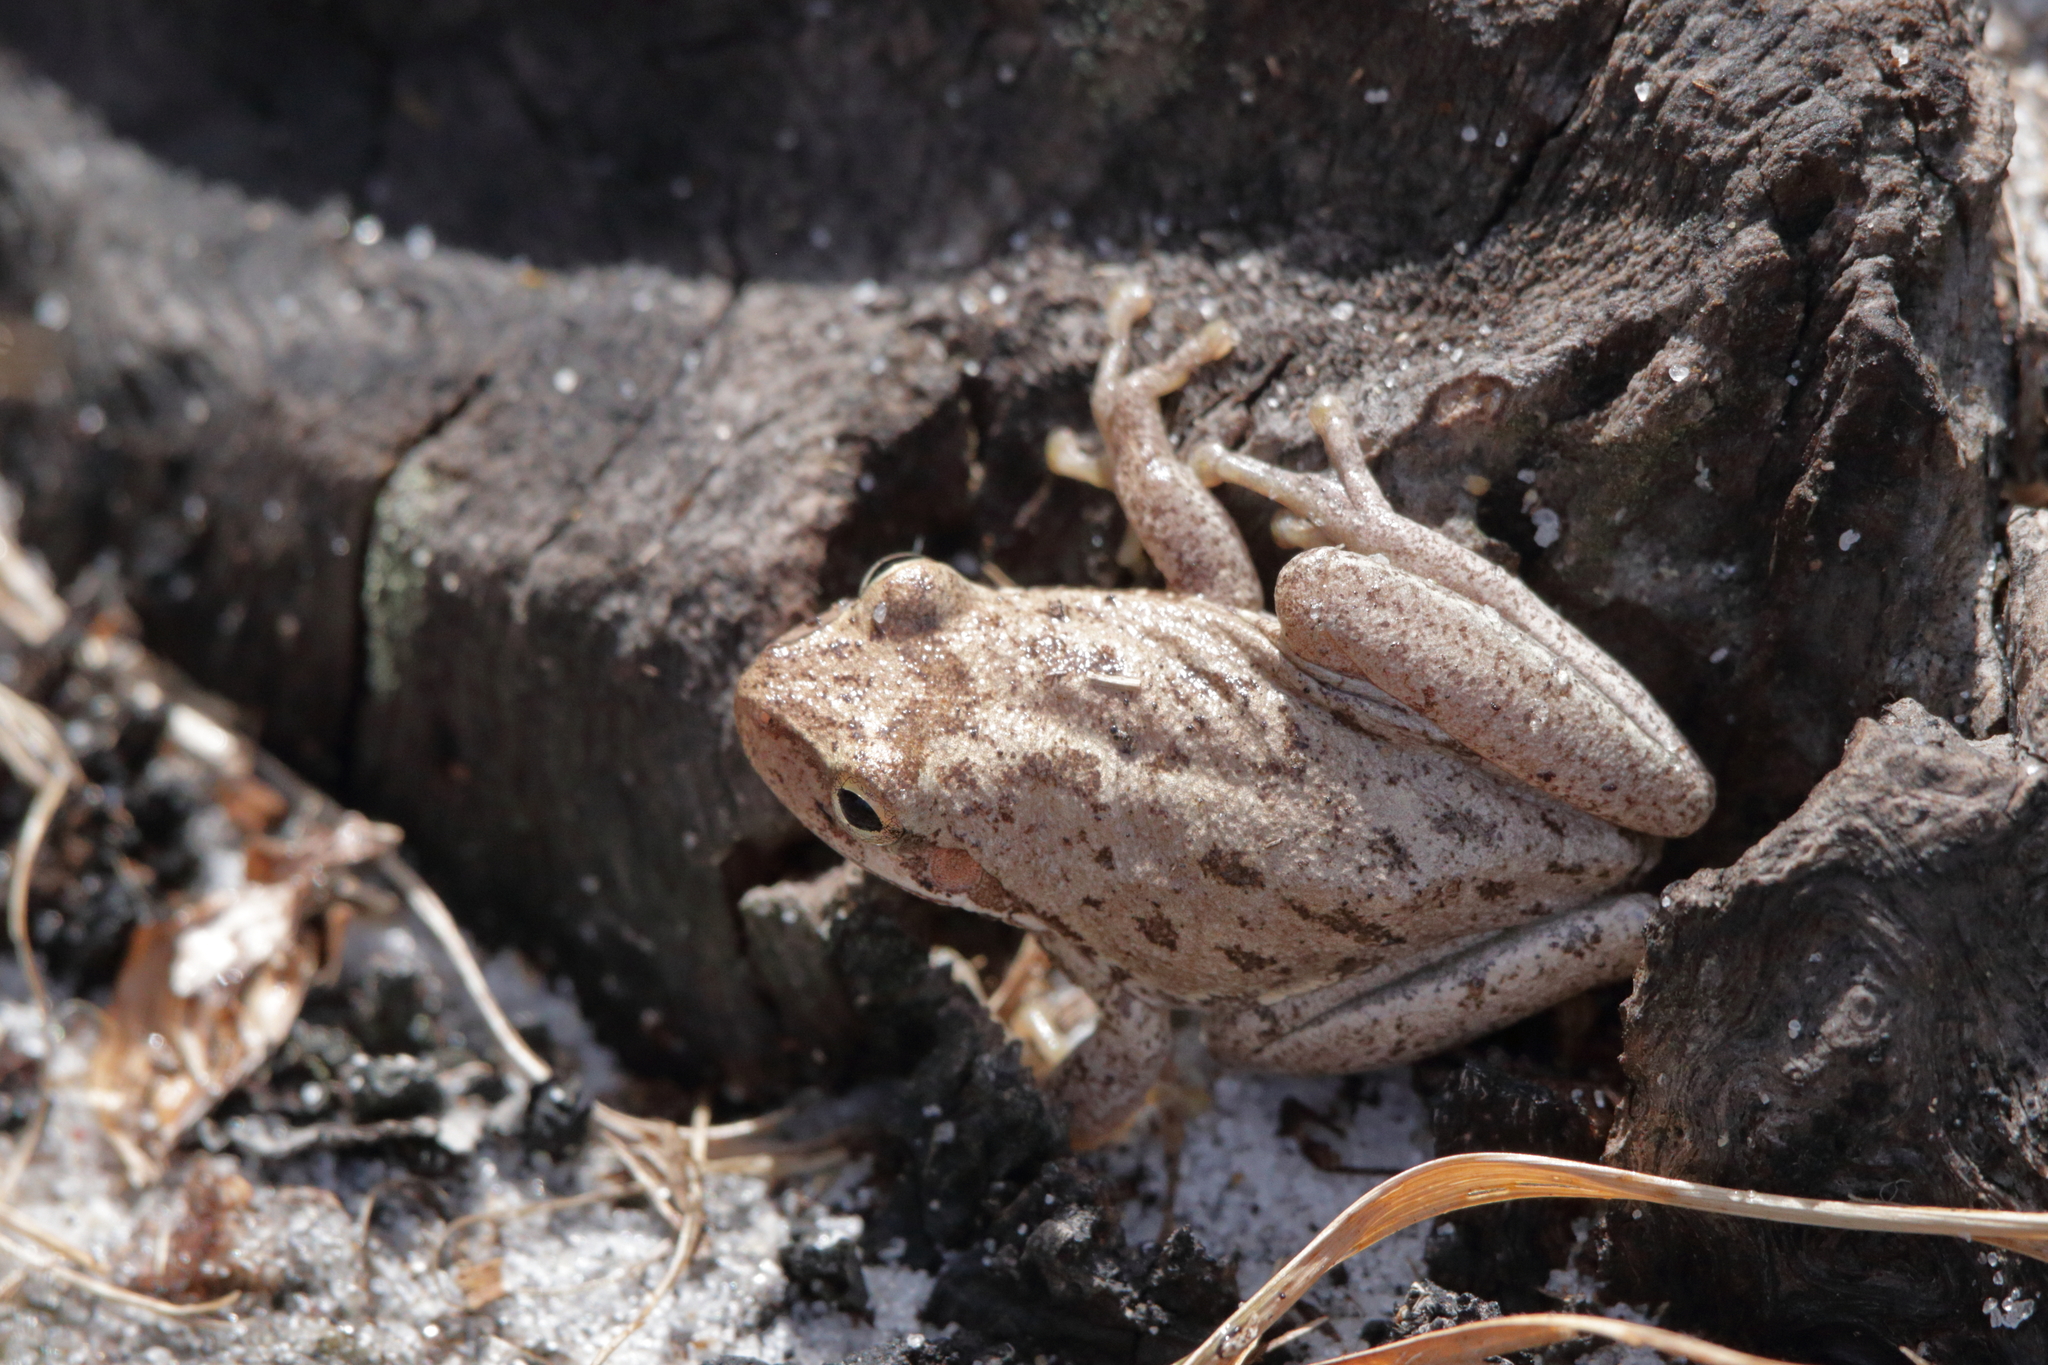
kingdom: Animalia
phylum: Chordata
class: Amphibia
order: Anura
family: Hylidae
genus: Dryophytes
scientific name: Dryophytes squirellus
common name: Squirrel treefrog
